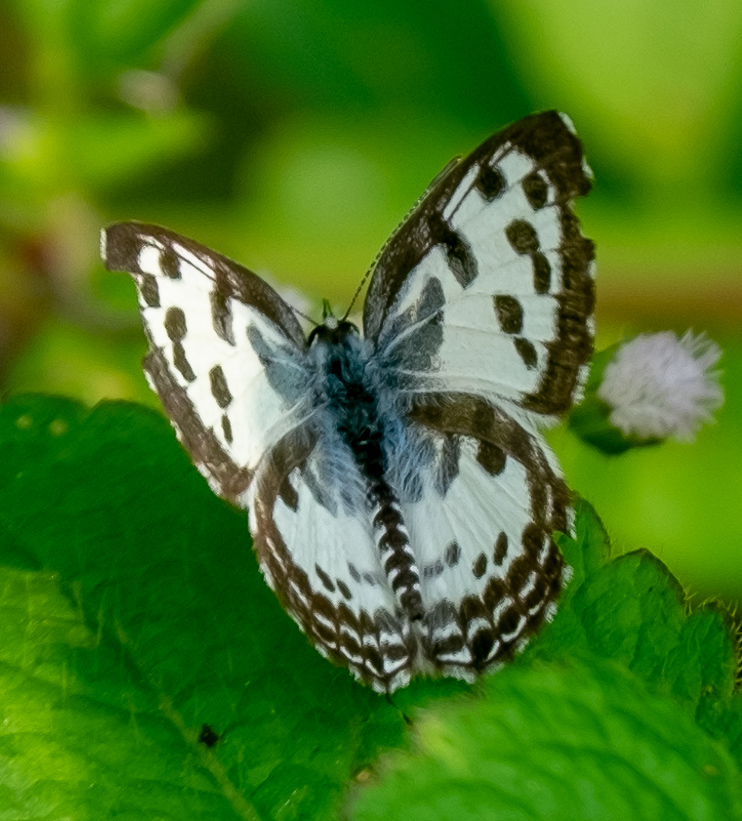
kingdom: Animalia
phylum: Arthropoda
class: Insecta
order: Lepidoptera
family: Lycaenidae
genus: Castalius
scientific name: Castalius rosimon
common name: Common pierrot
